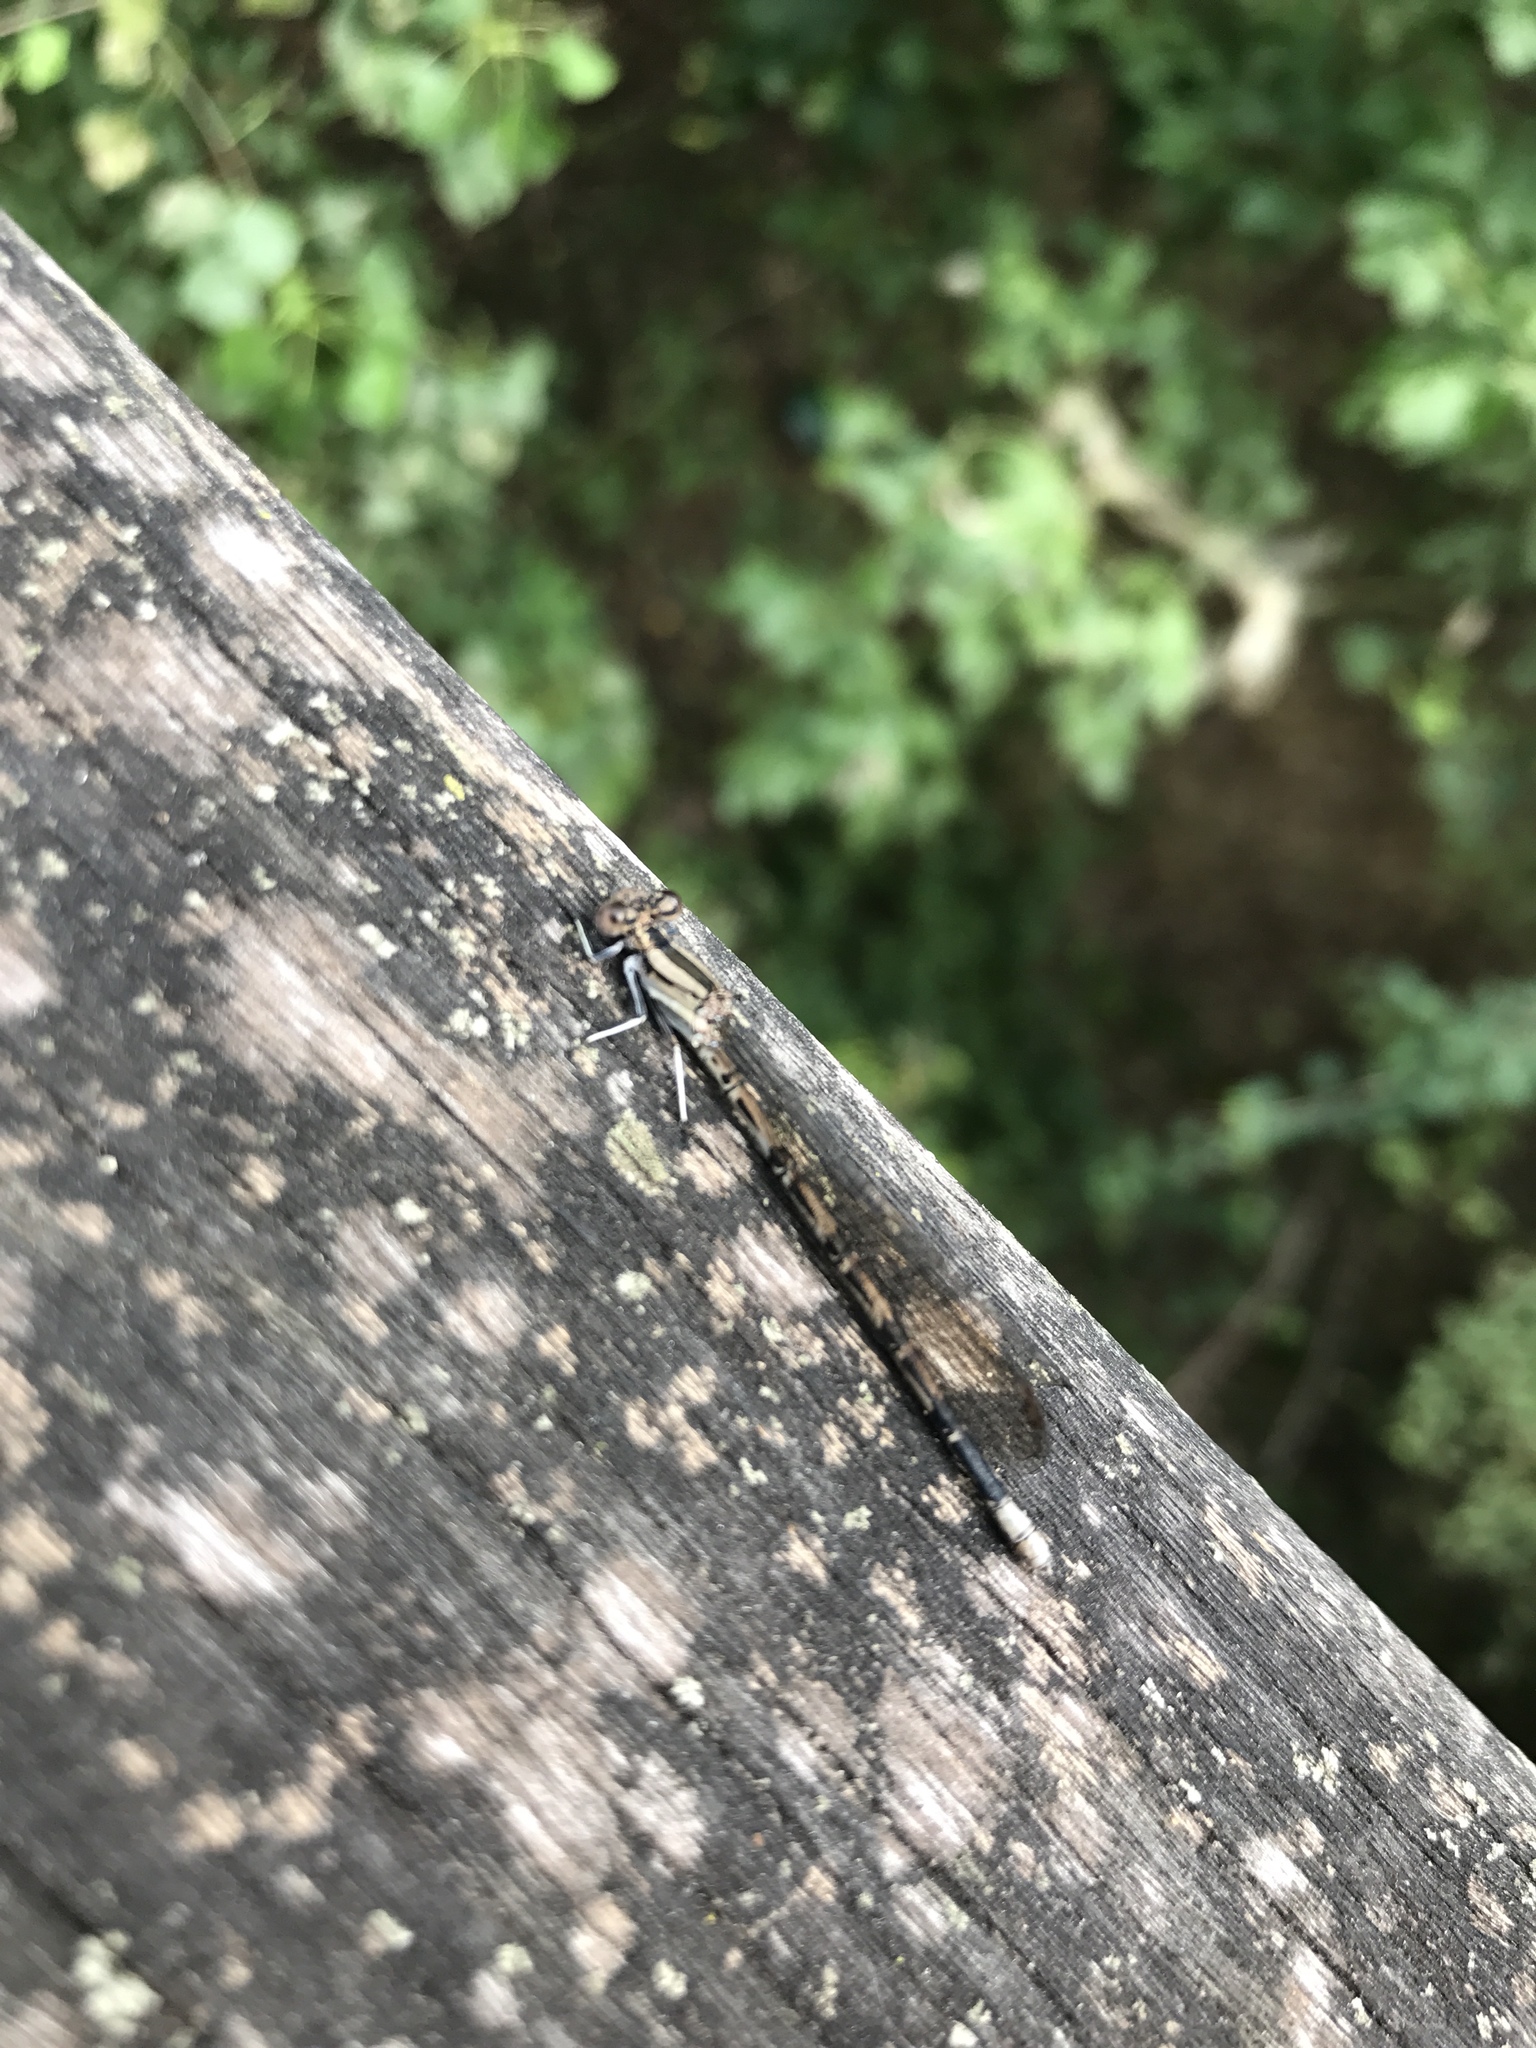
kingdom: Animalia
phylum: Arthropoda
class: Insecta
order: Odonata
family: Coenagrionidae
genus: Argia
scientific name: Argia funebris
